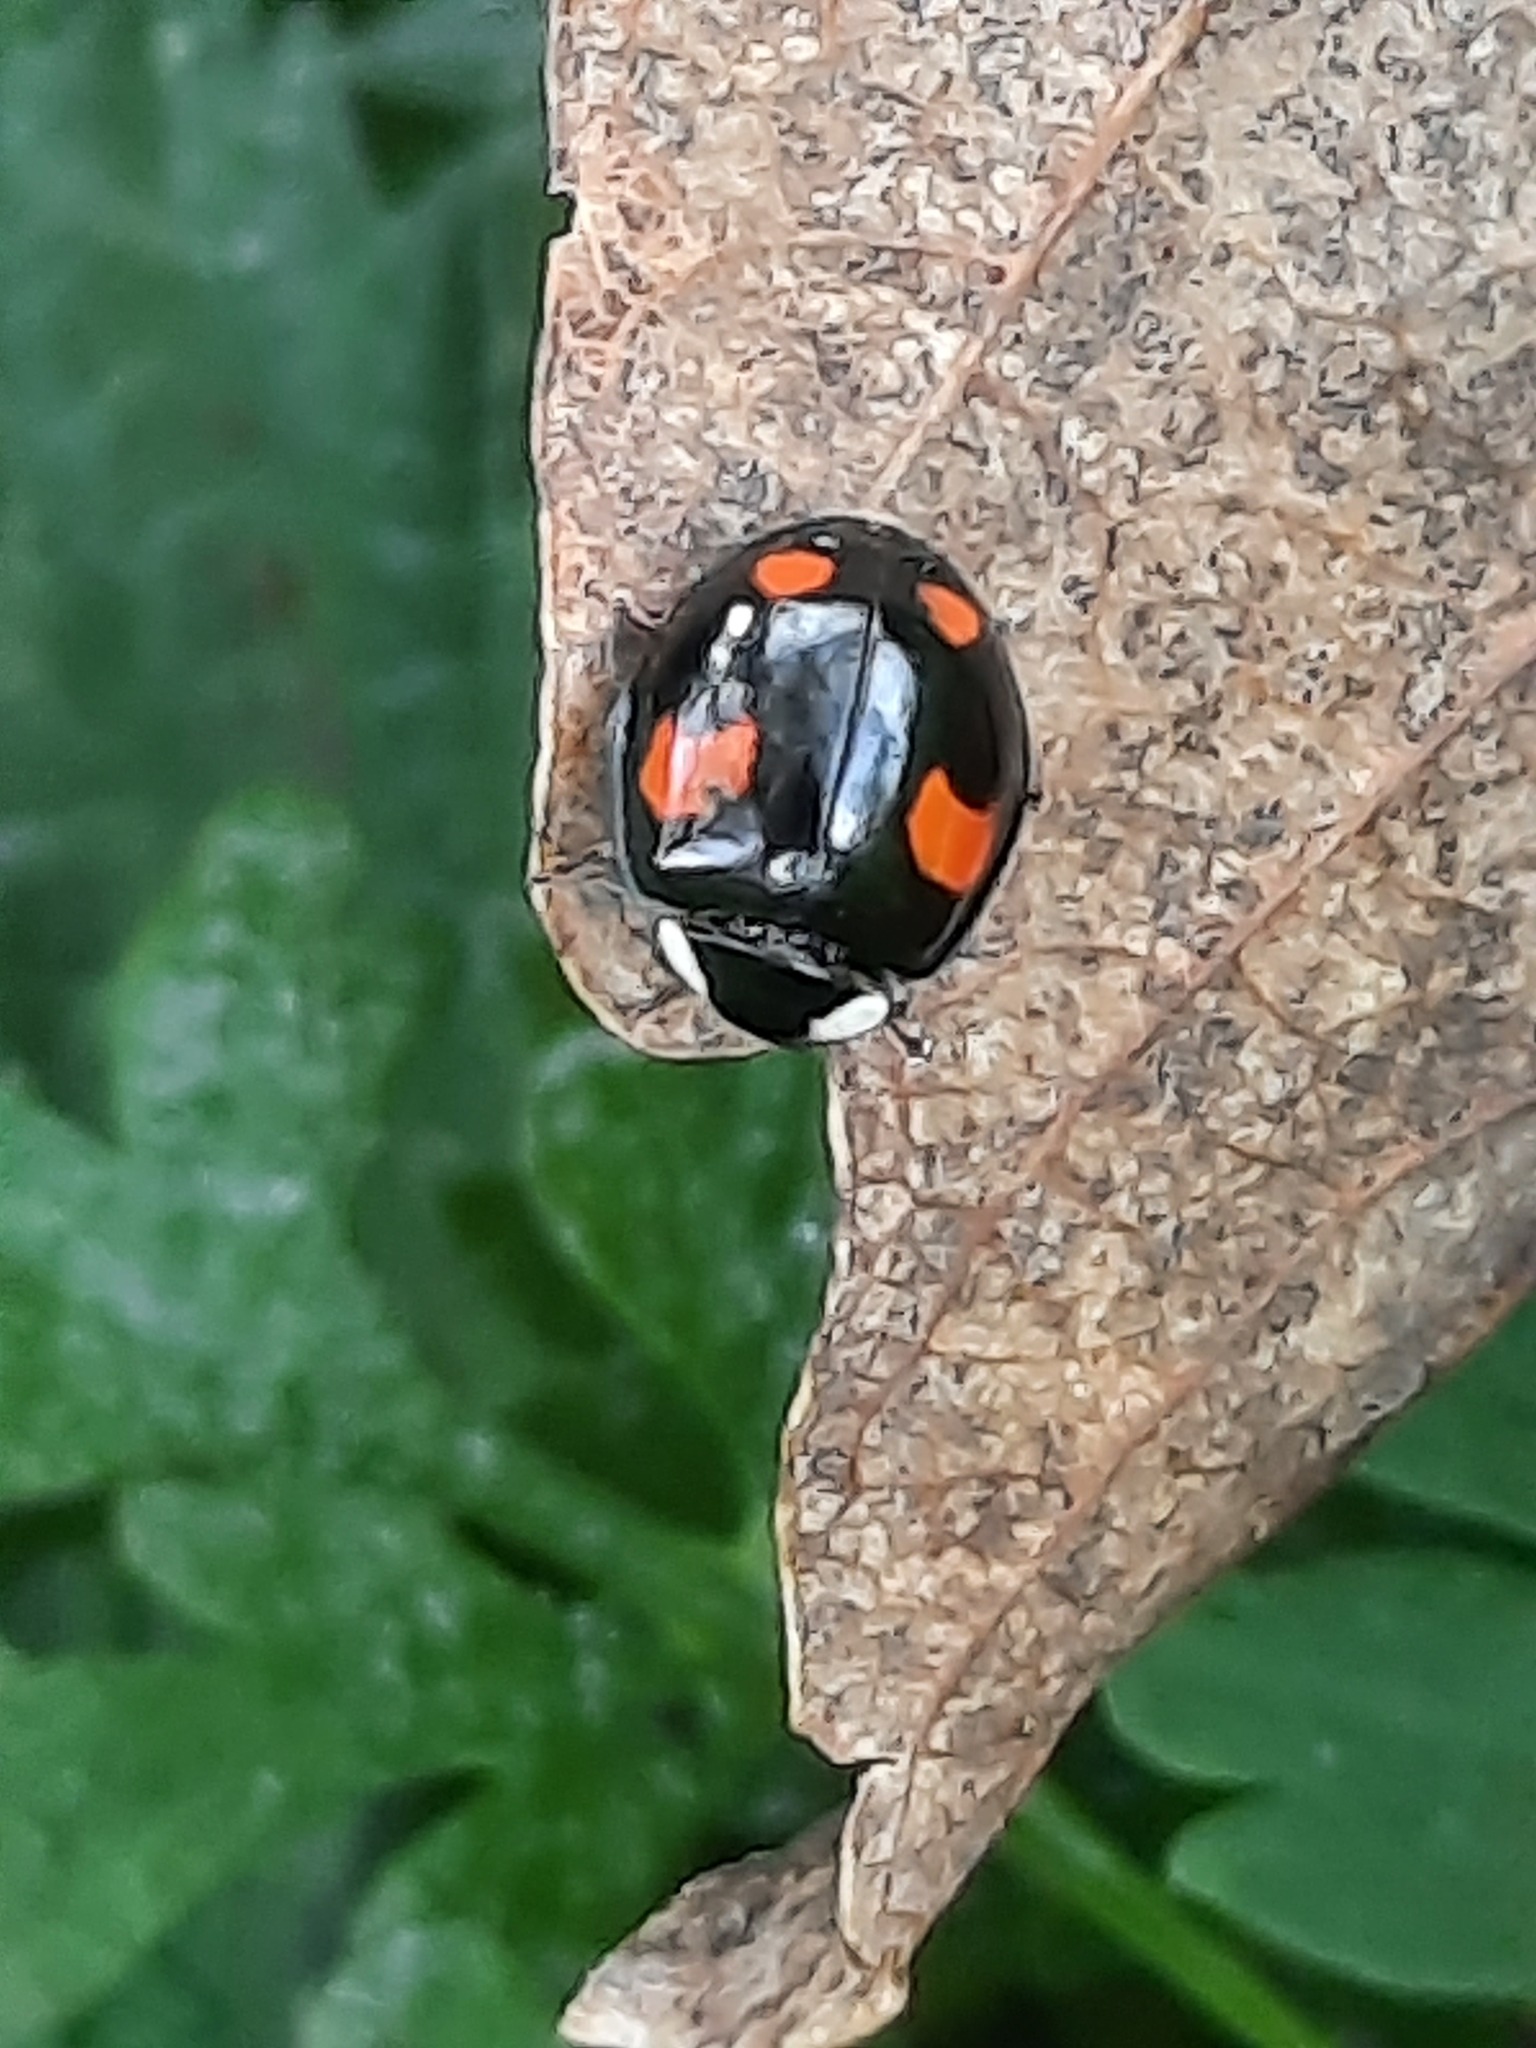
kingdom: Animalia
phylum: Arthropoda
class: Insecta
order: Coleoptera
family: Coccinellidae
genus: Harmonia
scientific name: Harmonia axyridis
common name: Harlequin ladybird
